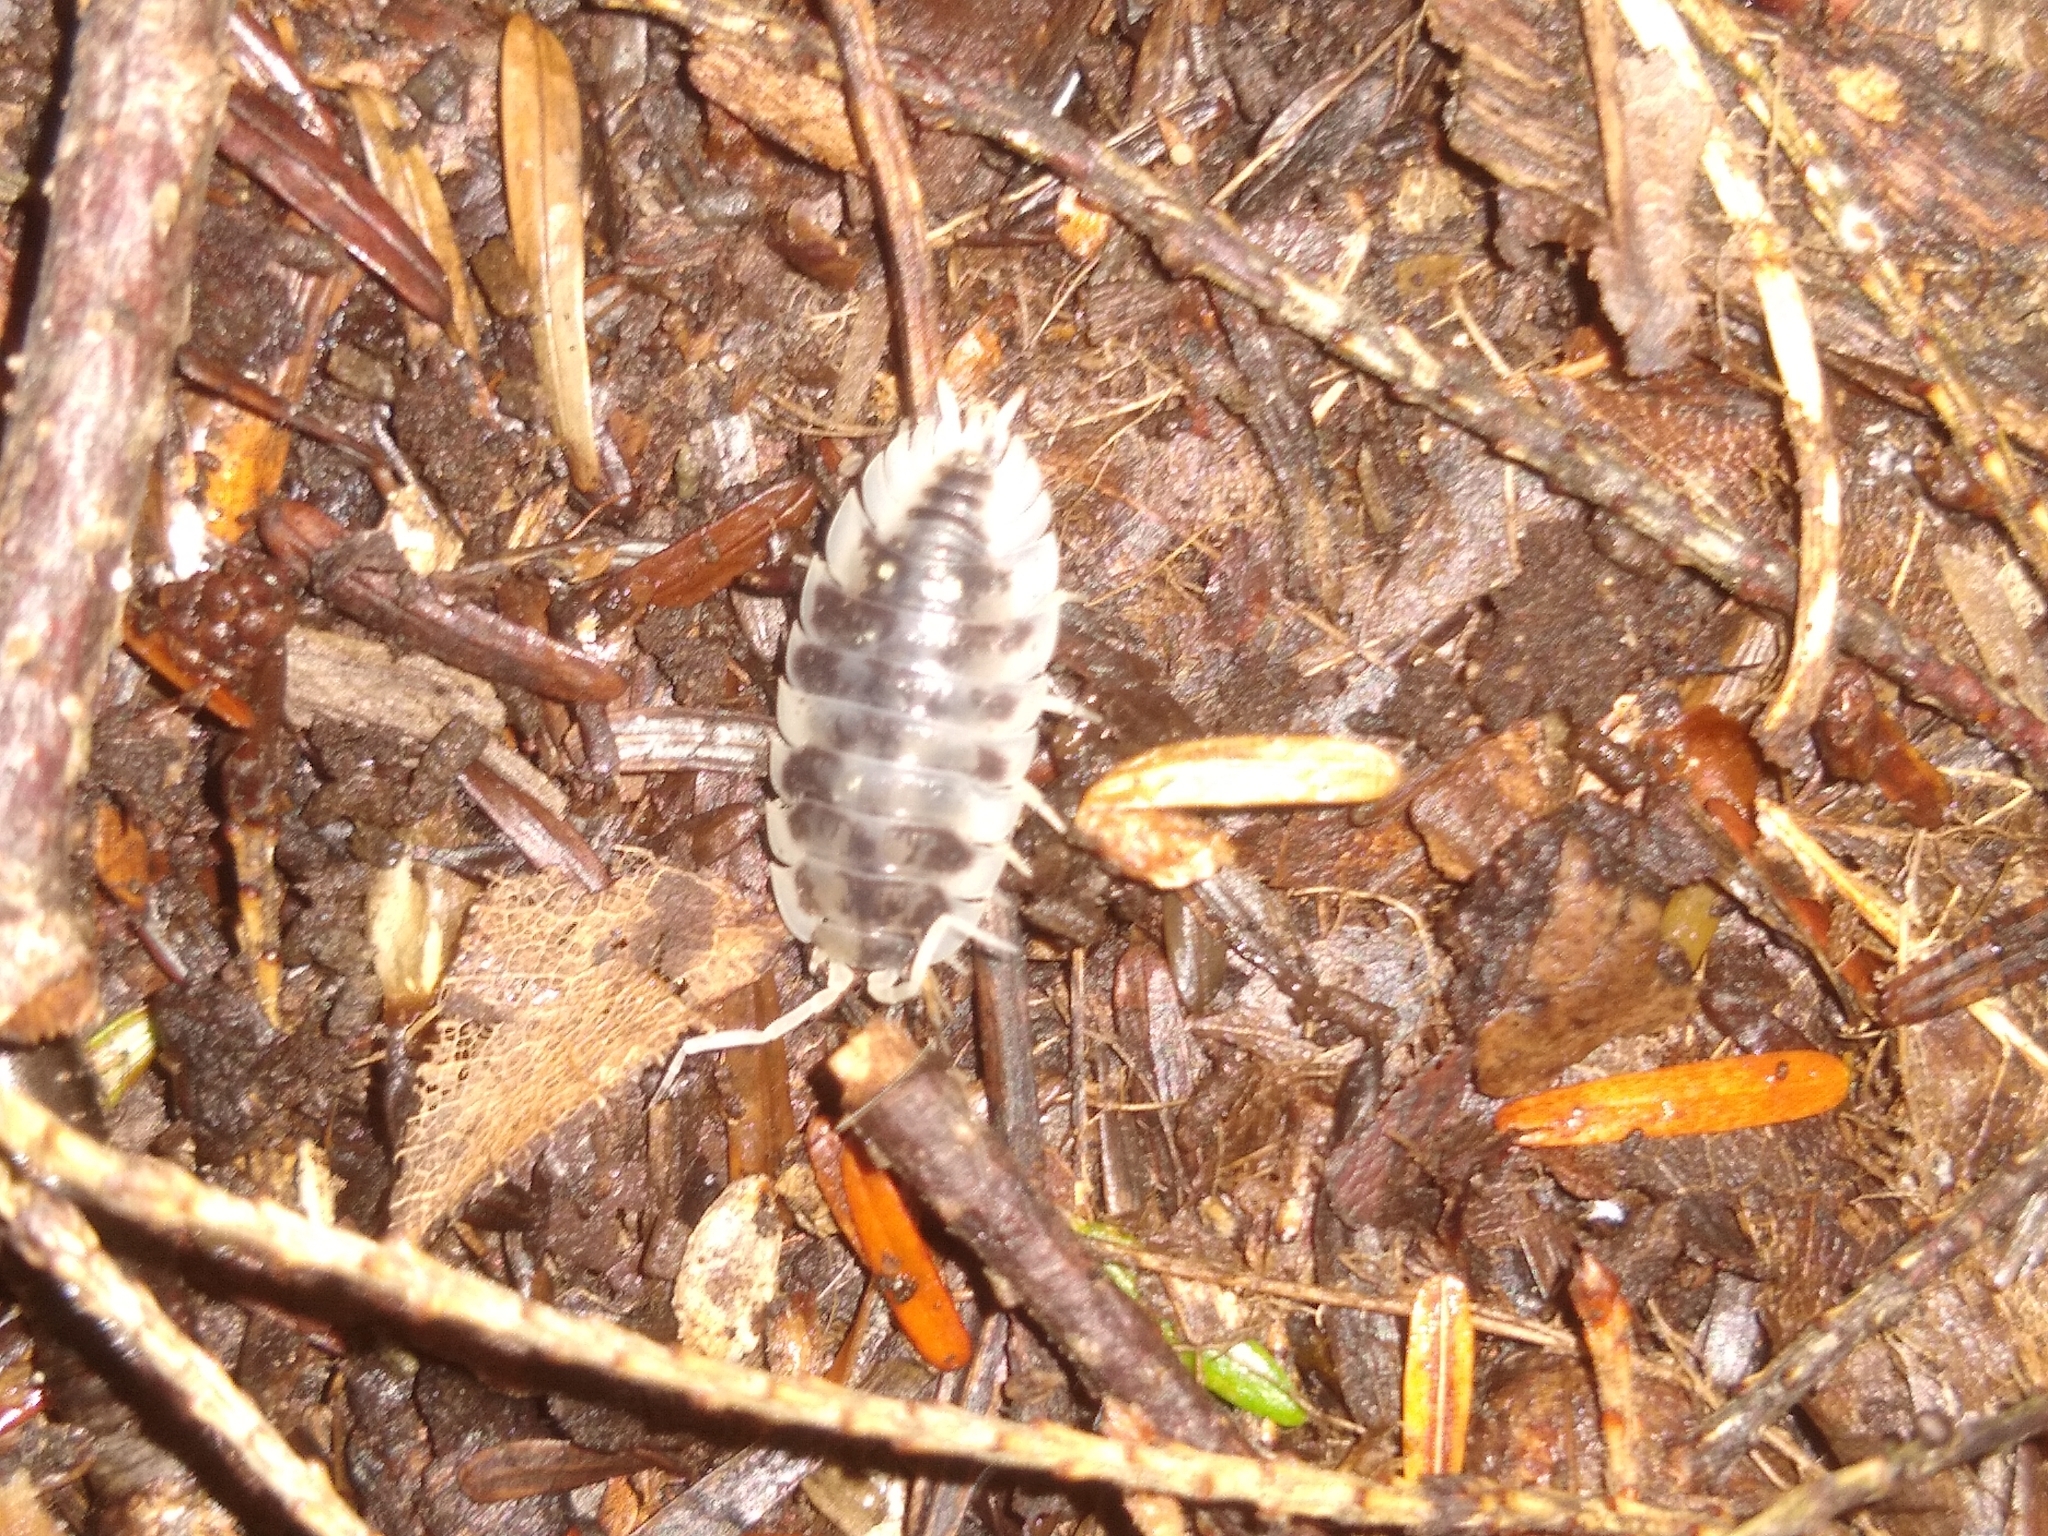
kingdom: Animalia
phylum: Arthropoda
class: Malacostraca
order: Isopoda
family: Oniscidae
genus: Oniscus
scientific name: Oniscus asellus
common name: Common shiny woodlouse
